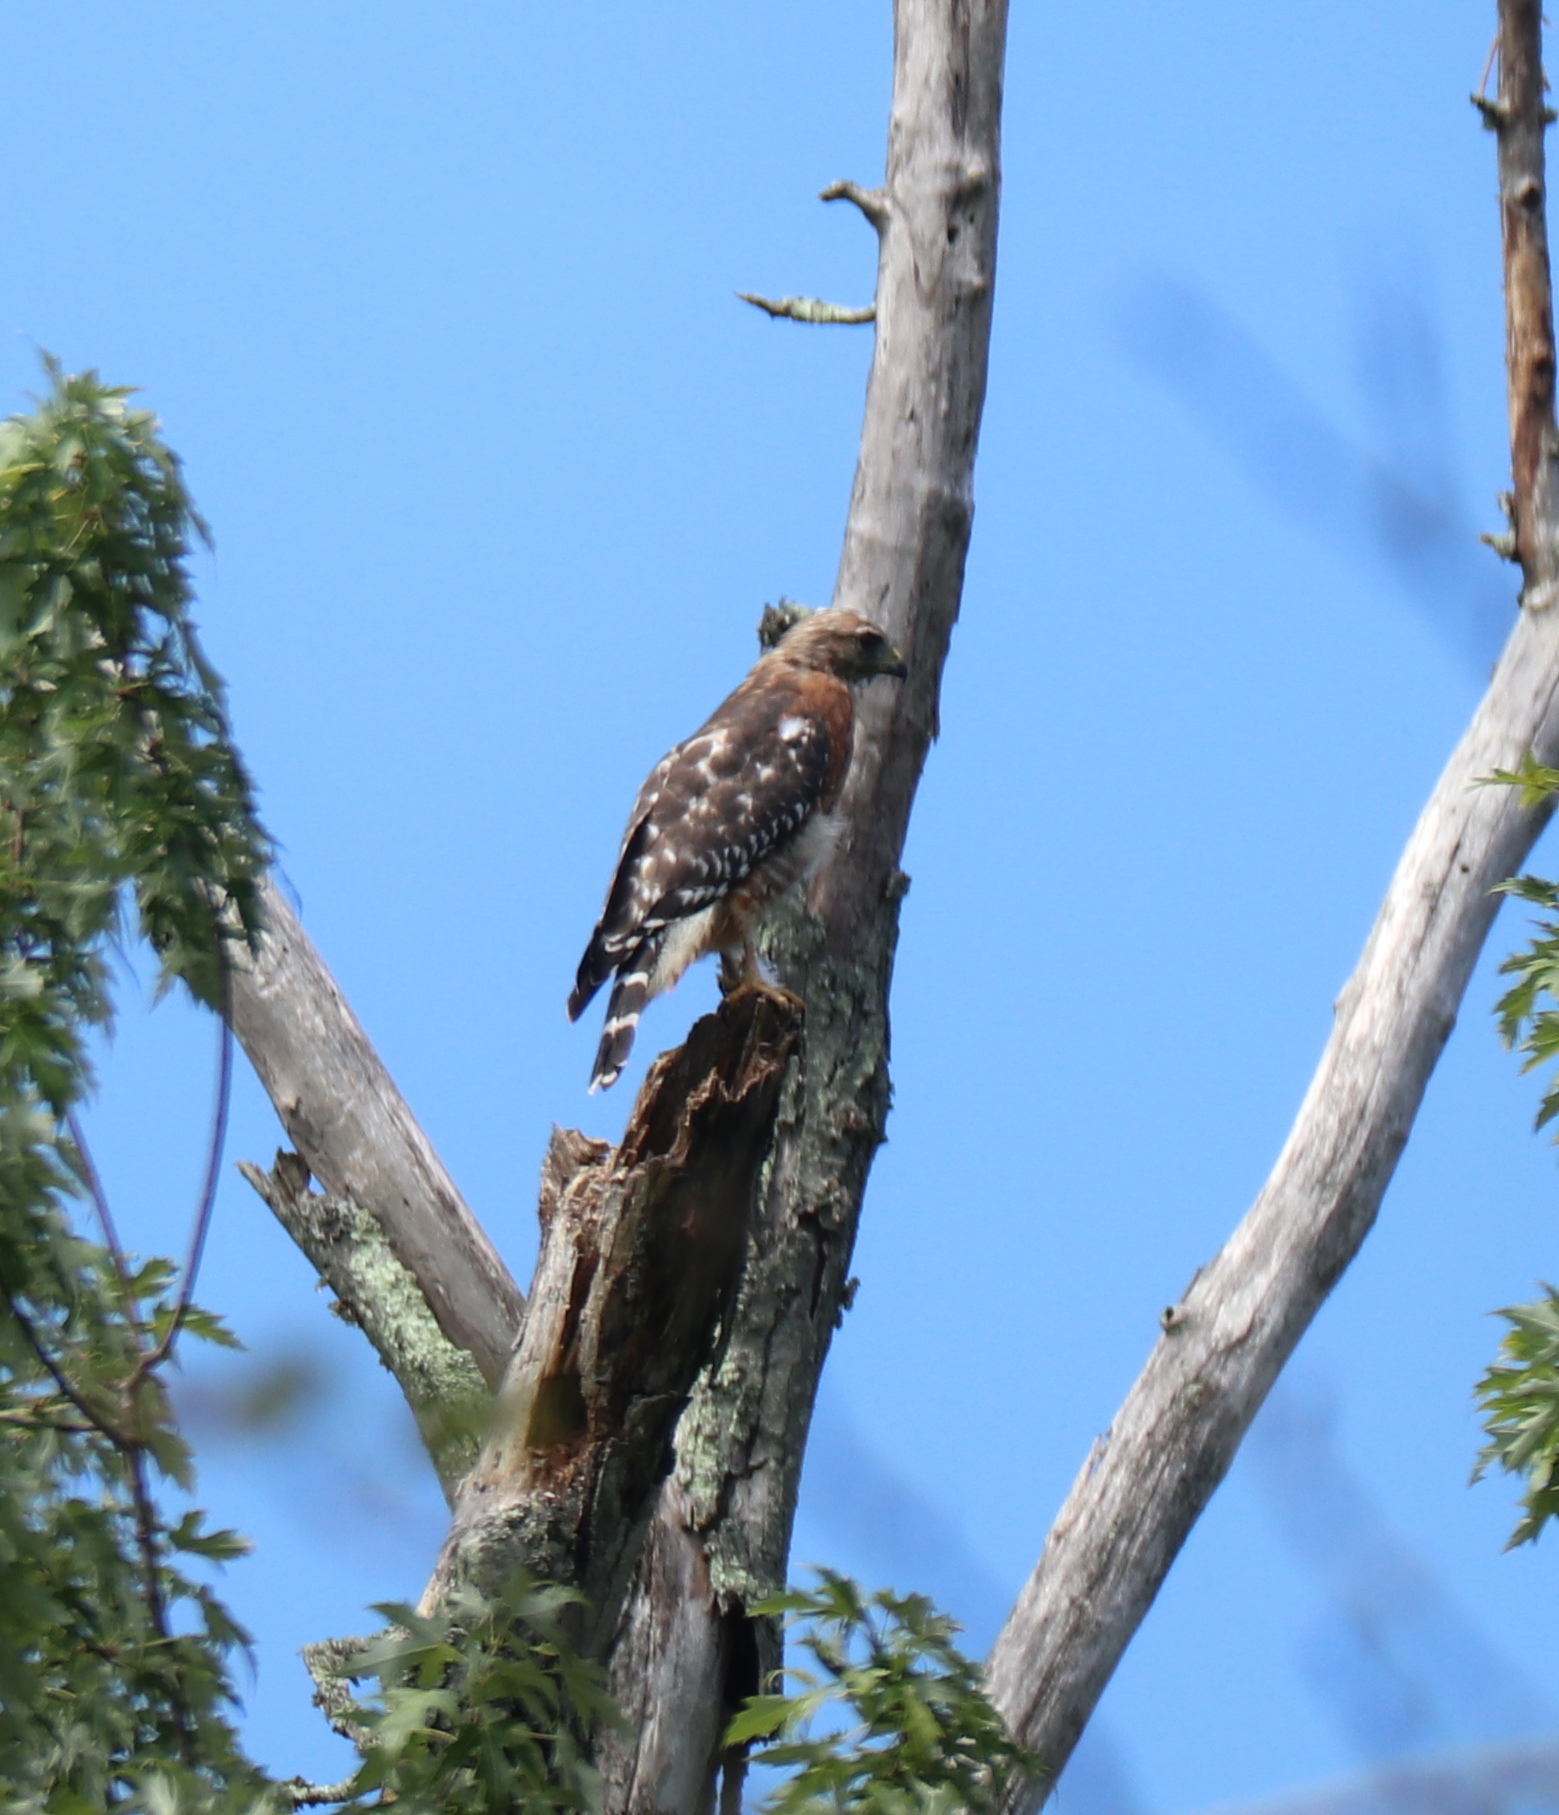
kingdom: Animalia
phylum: Chordata
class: Aves
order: Accipitriformes
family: Accipitridae
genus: Buteo
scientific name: Buteo lineatus
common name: Red-shouldered hawk
